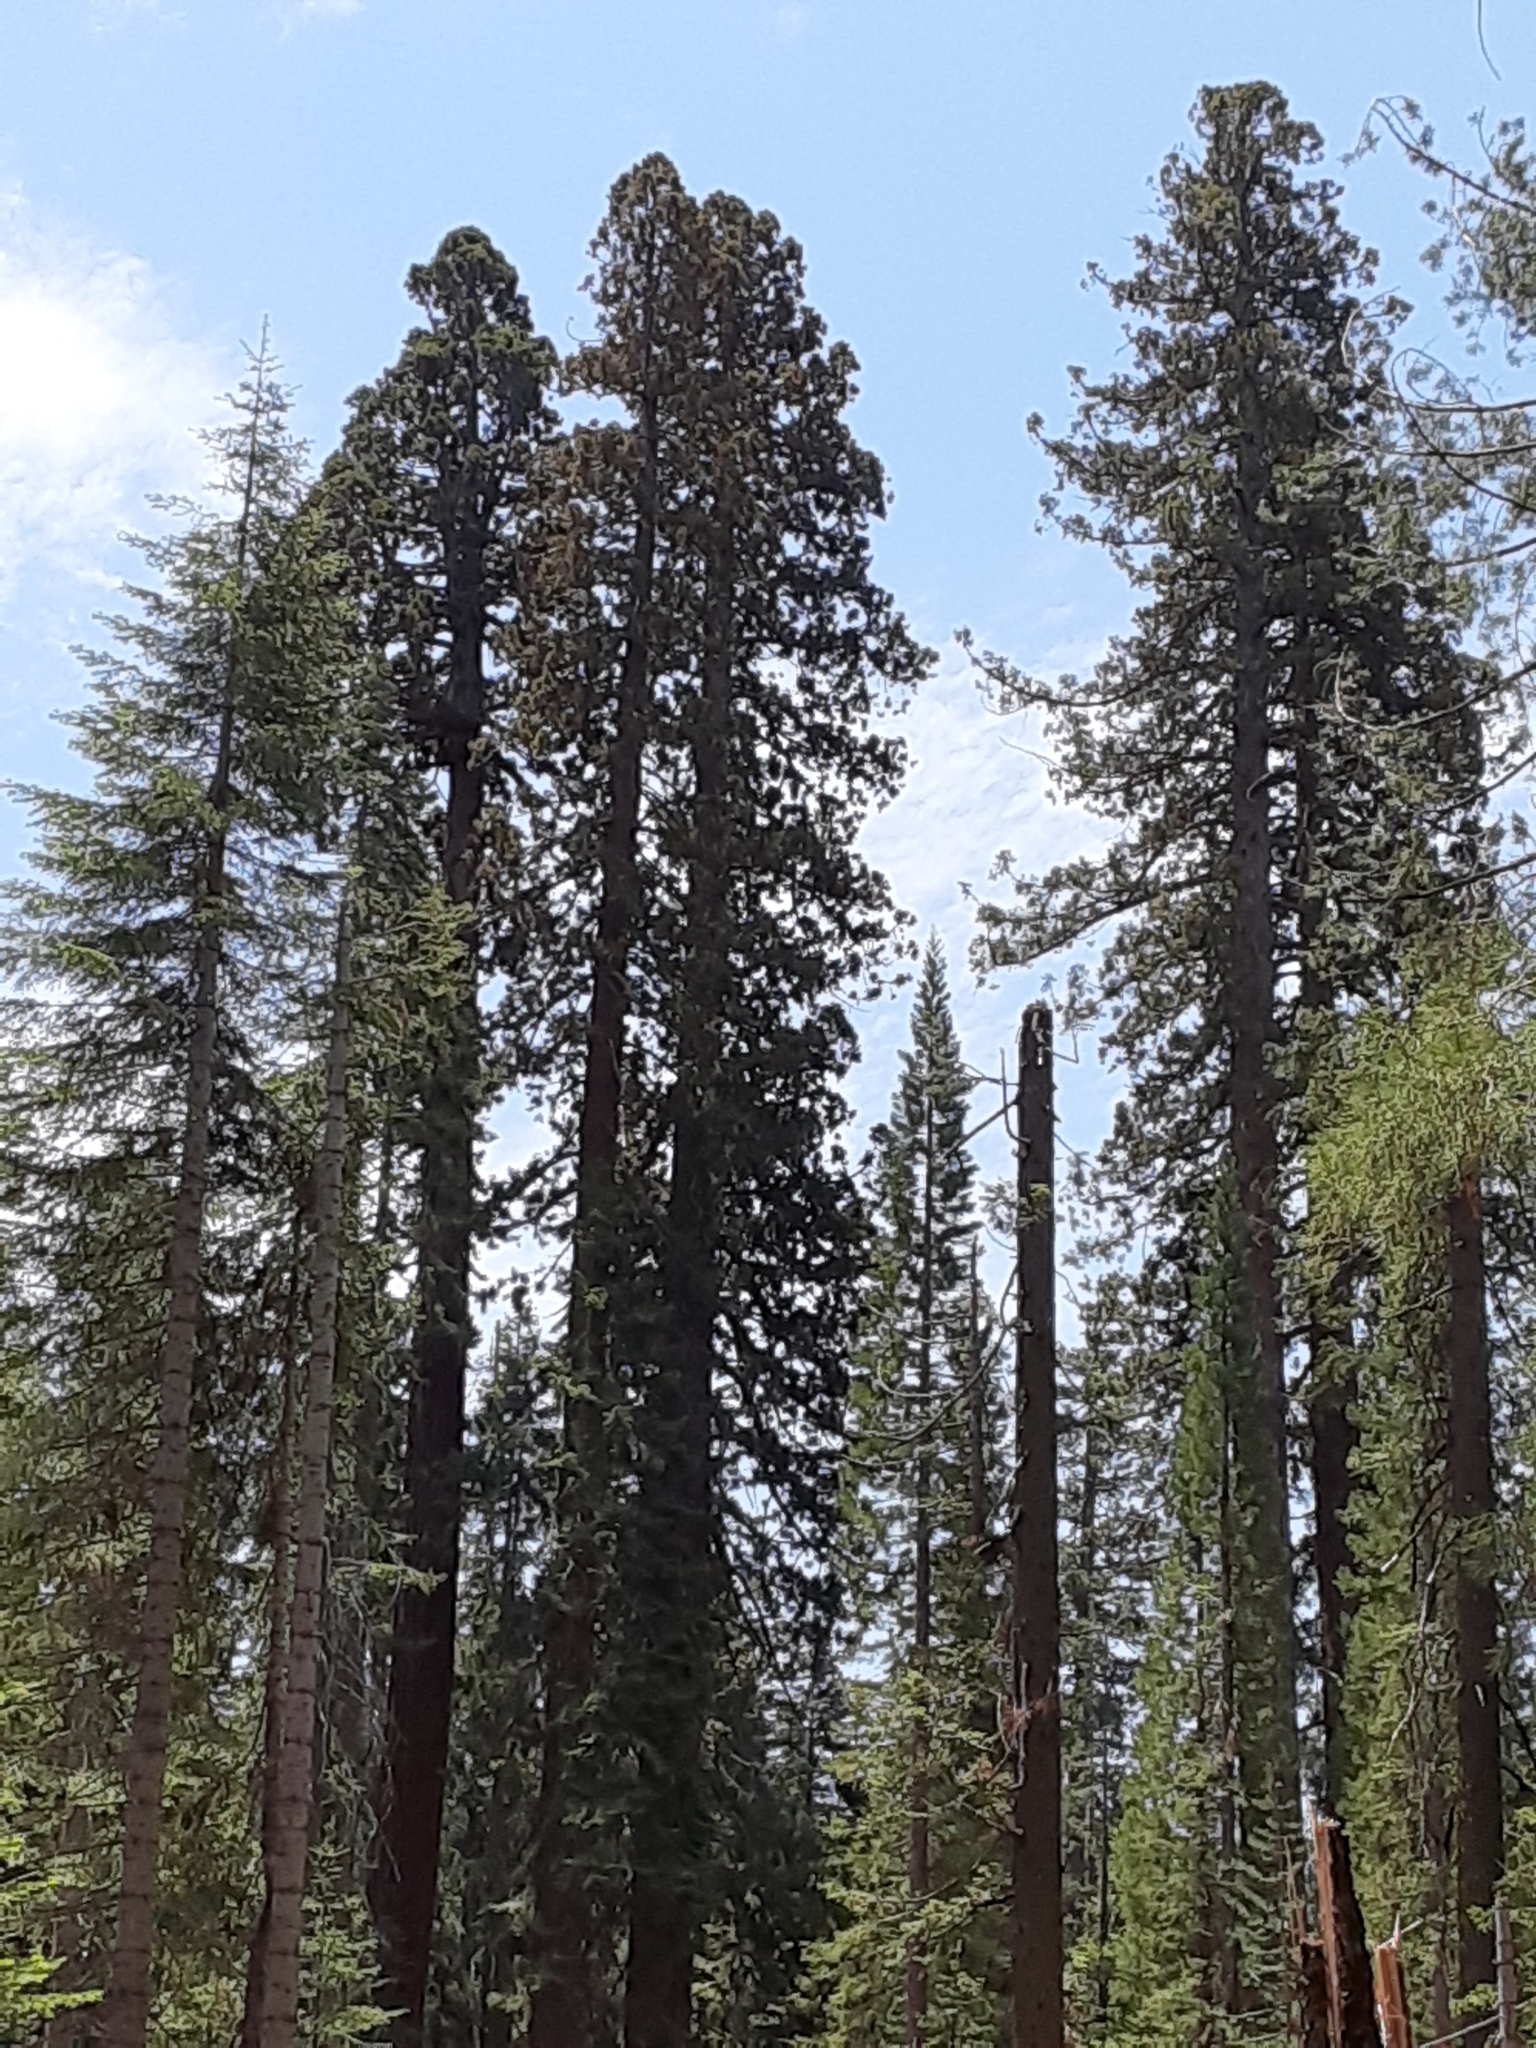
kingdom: Plantae
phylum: Tracheophyta
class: Pinopsida
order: Pinales
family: Cupressaceae
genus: Sequoiadendron
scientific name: Sequoiadendron giganteum
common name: Wellingtonia
